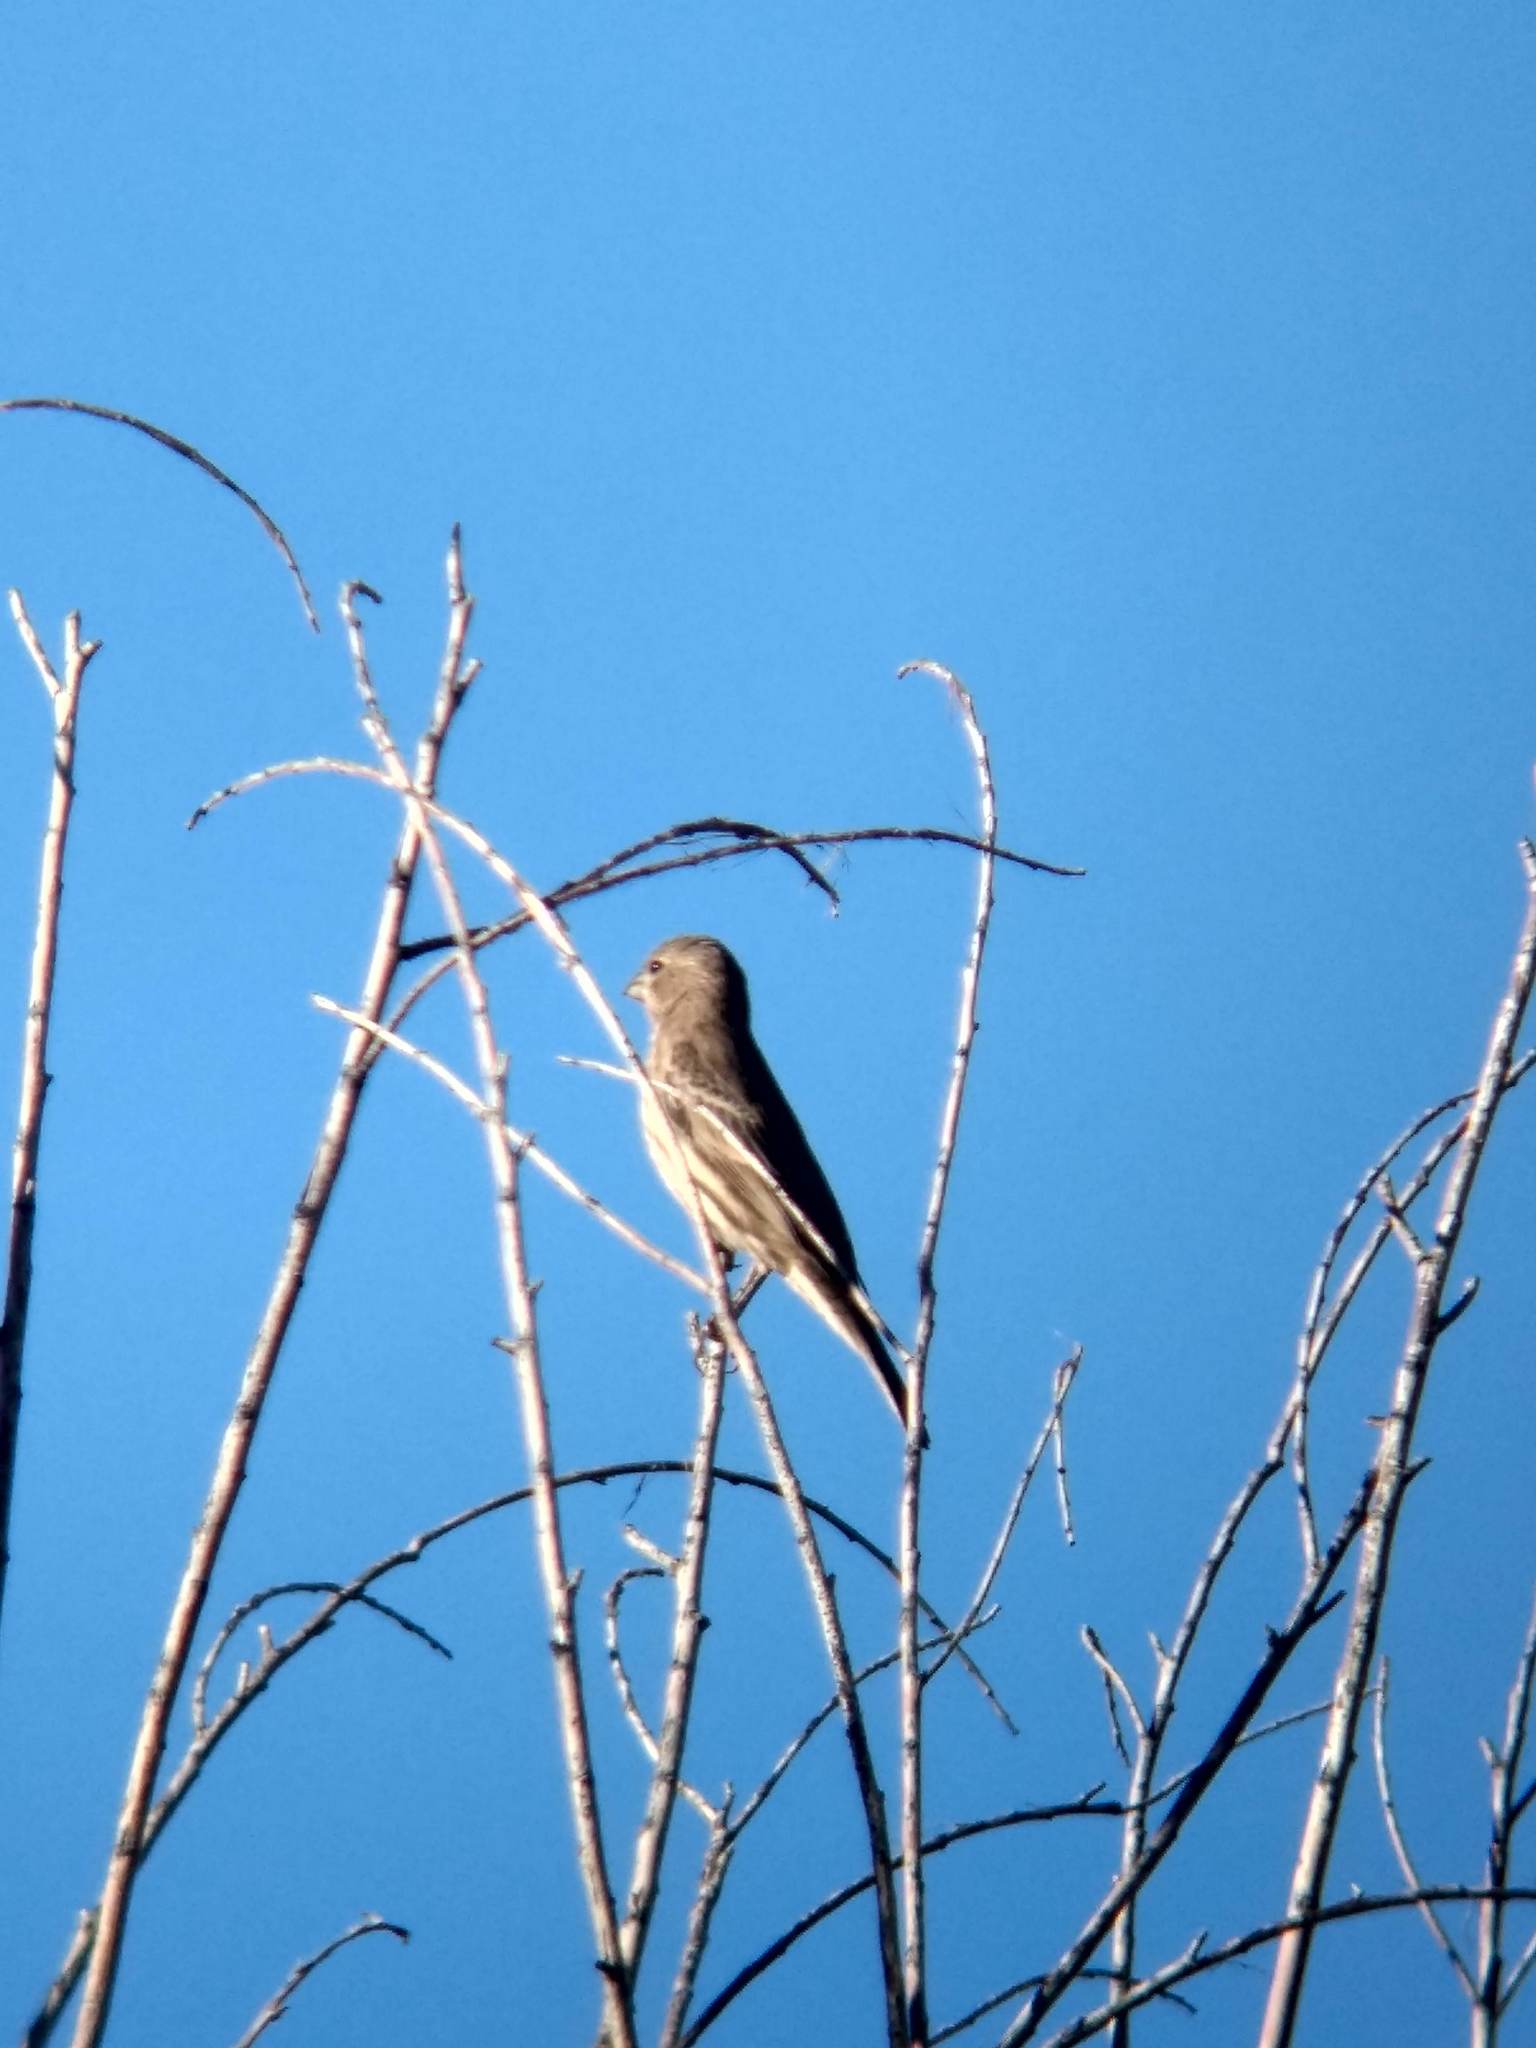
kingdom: Animalia
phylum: Chordata
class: Aves
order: Passeriformes
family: Fringillidae
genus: Haemorhous
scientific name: Haemorhous mexicanus
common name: House finch
